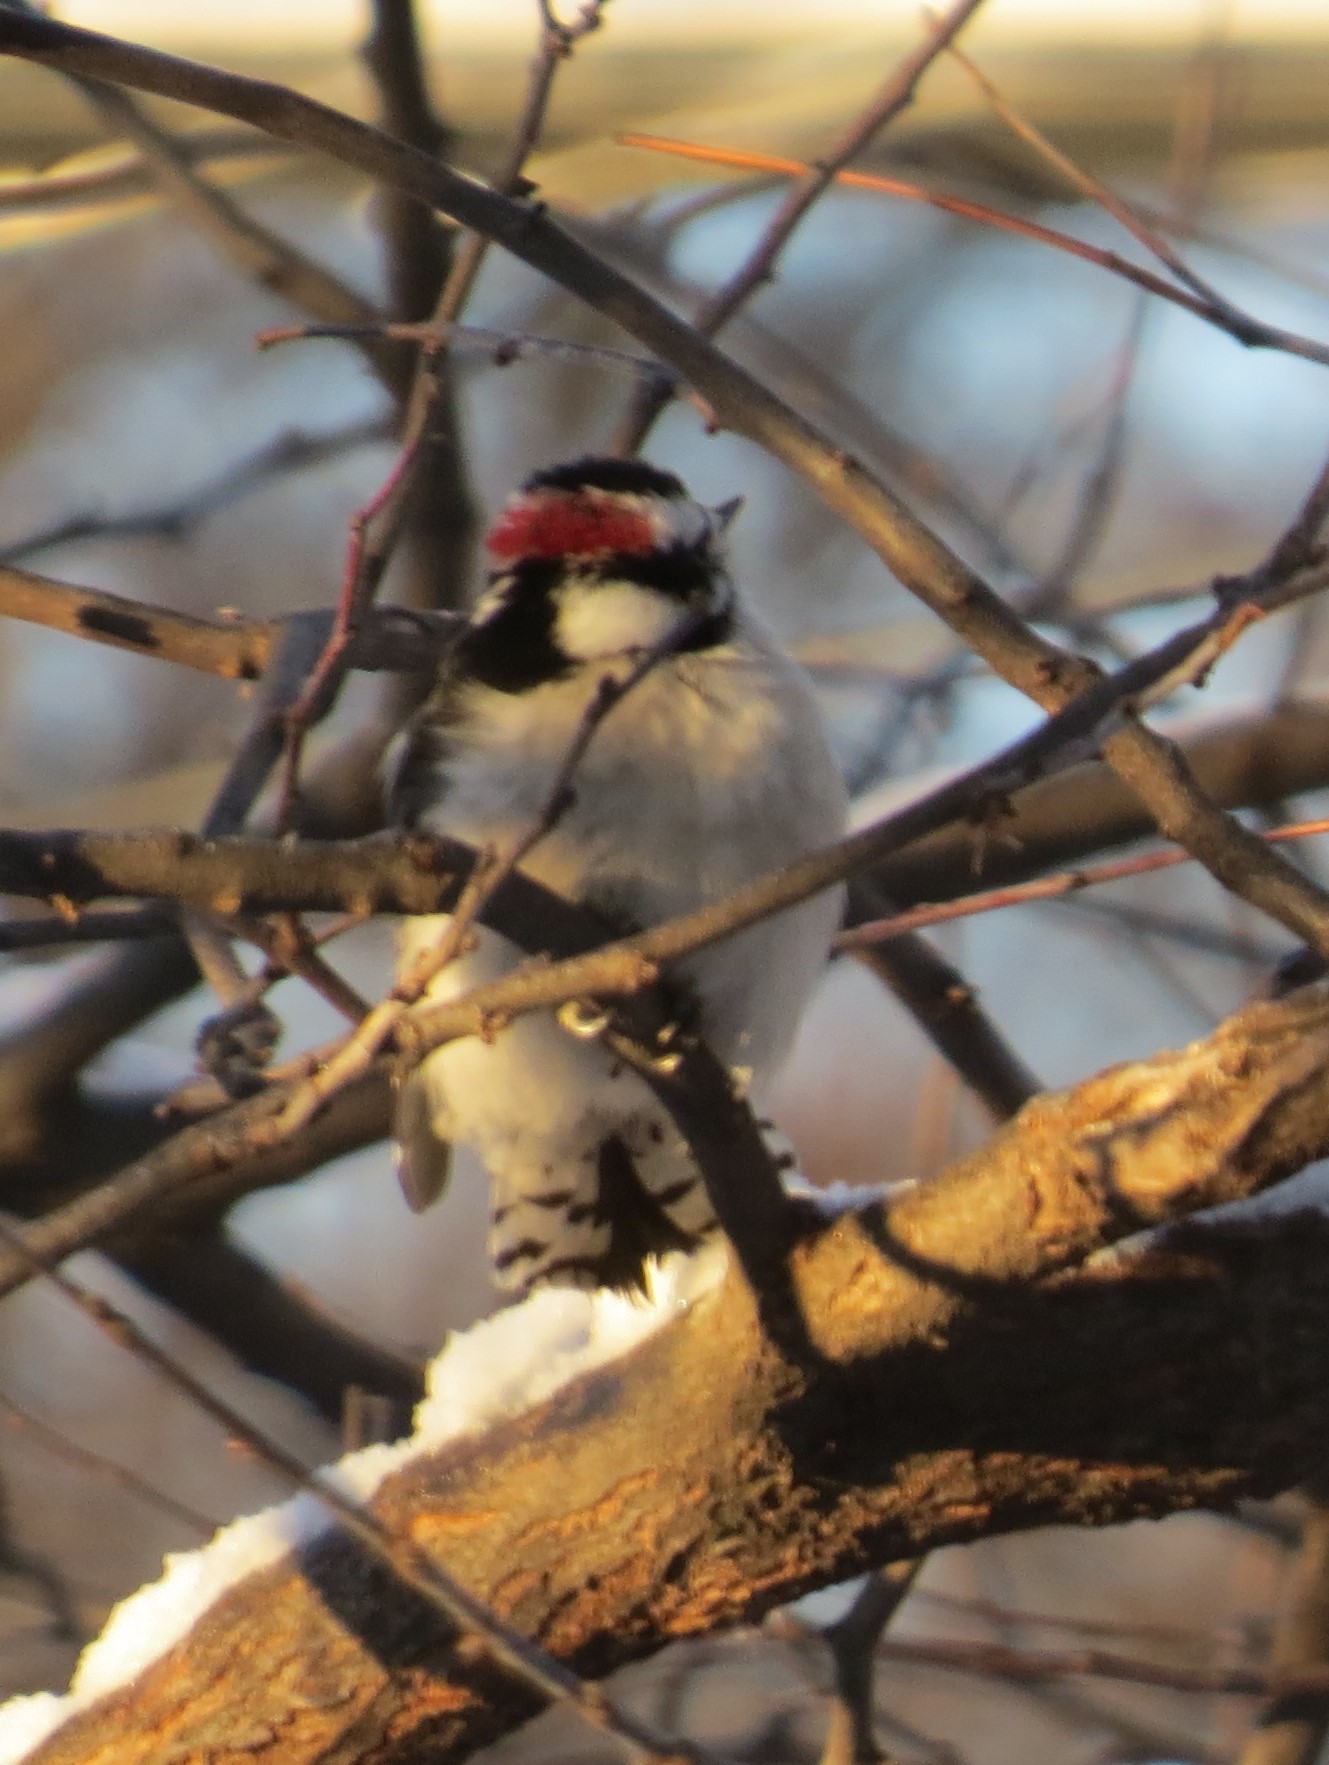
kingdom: Animalia
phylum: Chordata
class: Aves
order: Piciformes
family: Picidae
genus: Dryobates
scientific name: Dryobates pubescens
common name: Downy woodpecker
